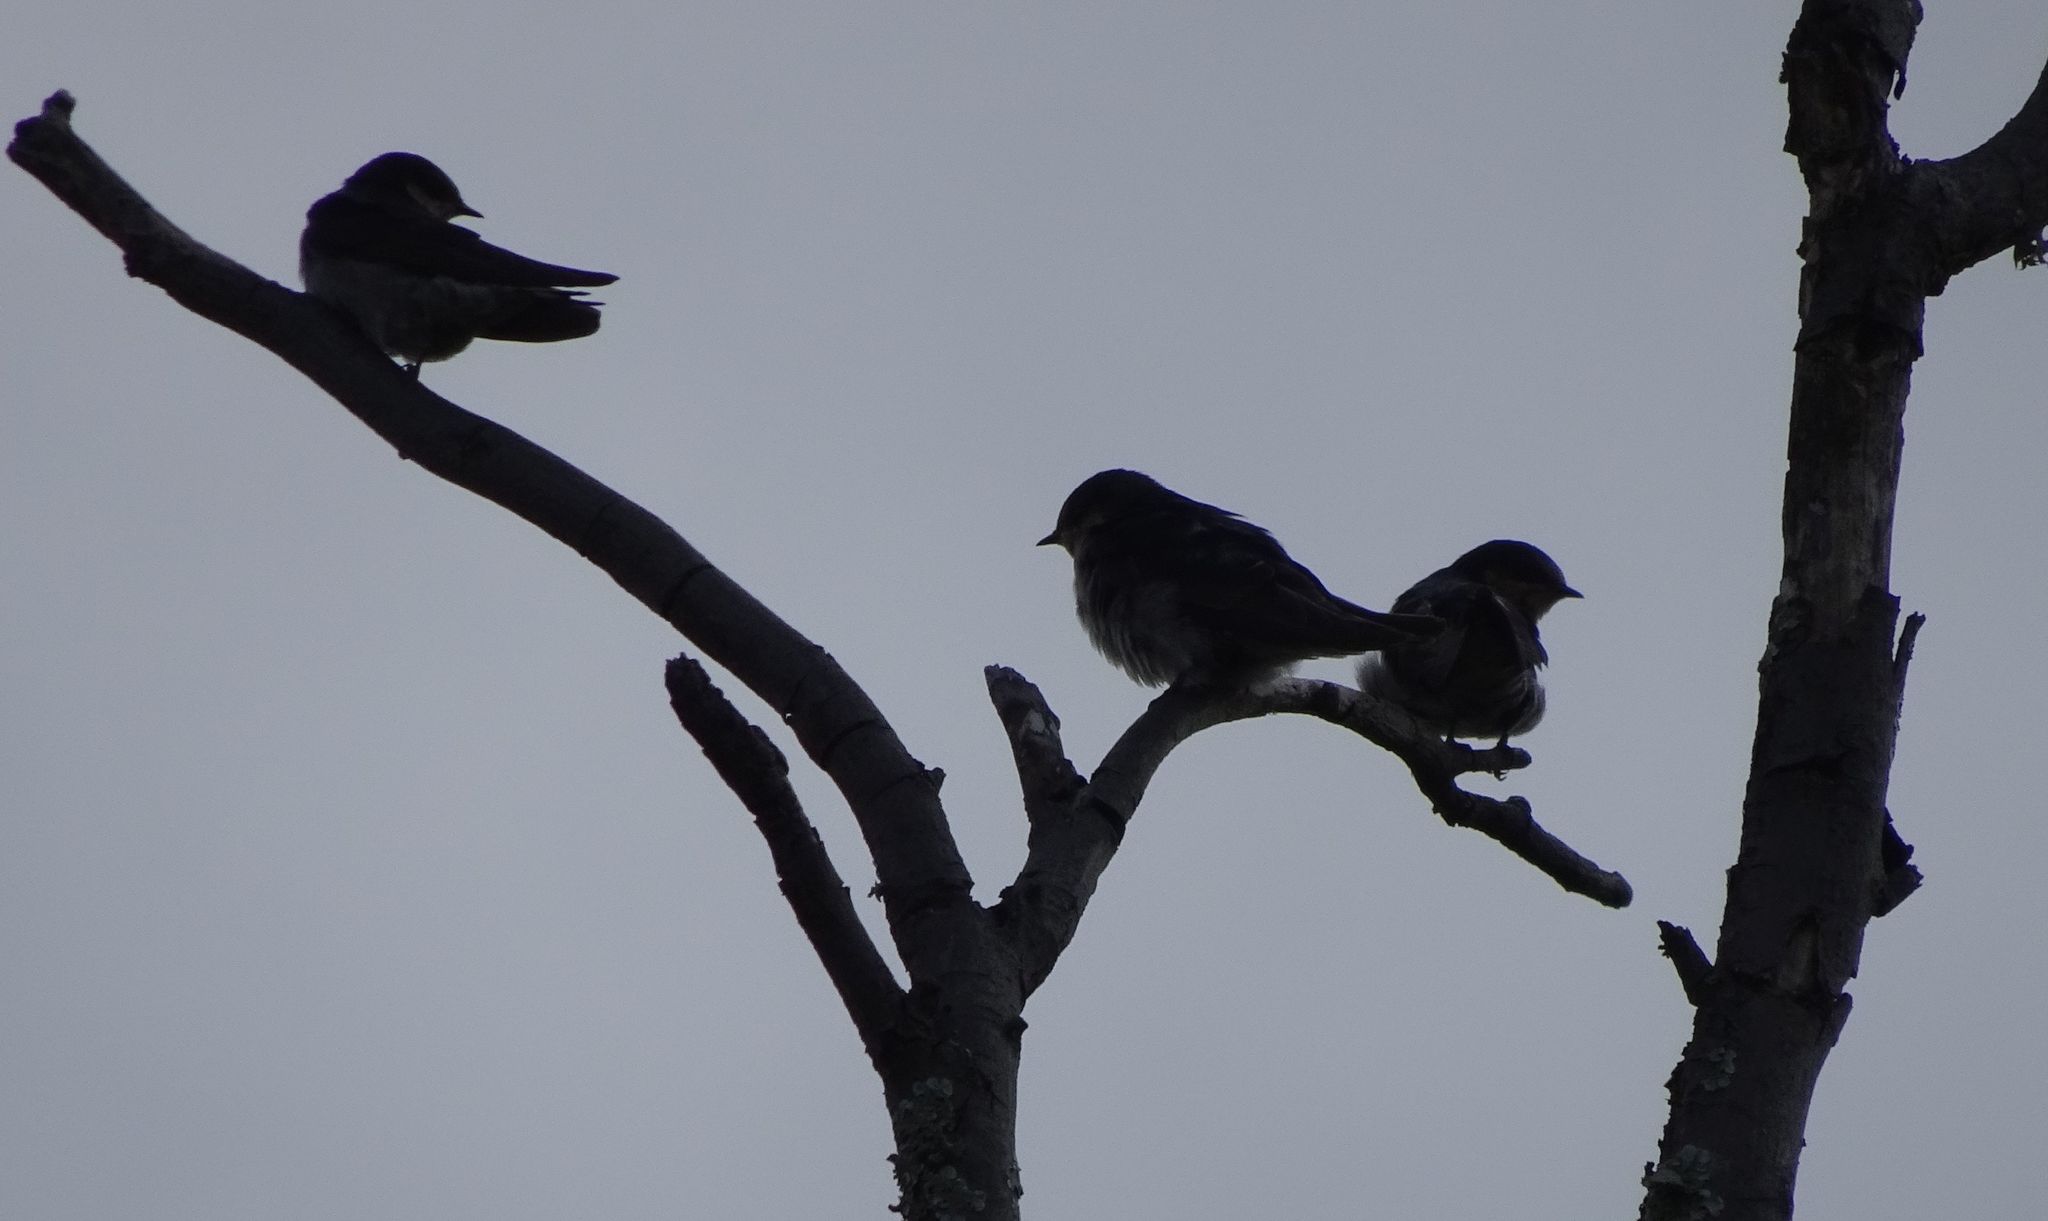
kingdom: Animalia
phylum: Chordata
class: Aves
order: Passeriformes
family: Hirundinidae
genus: Hirundo
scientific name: Hirundo neoxena
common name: Welcome swallow
